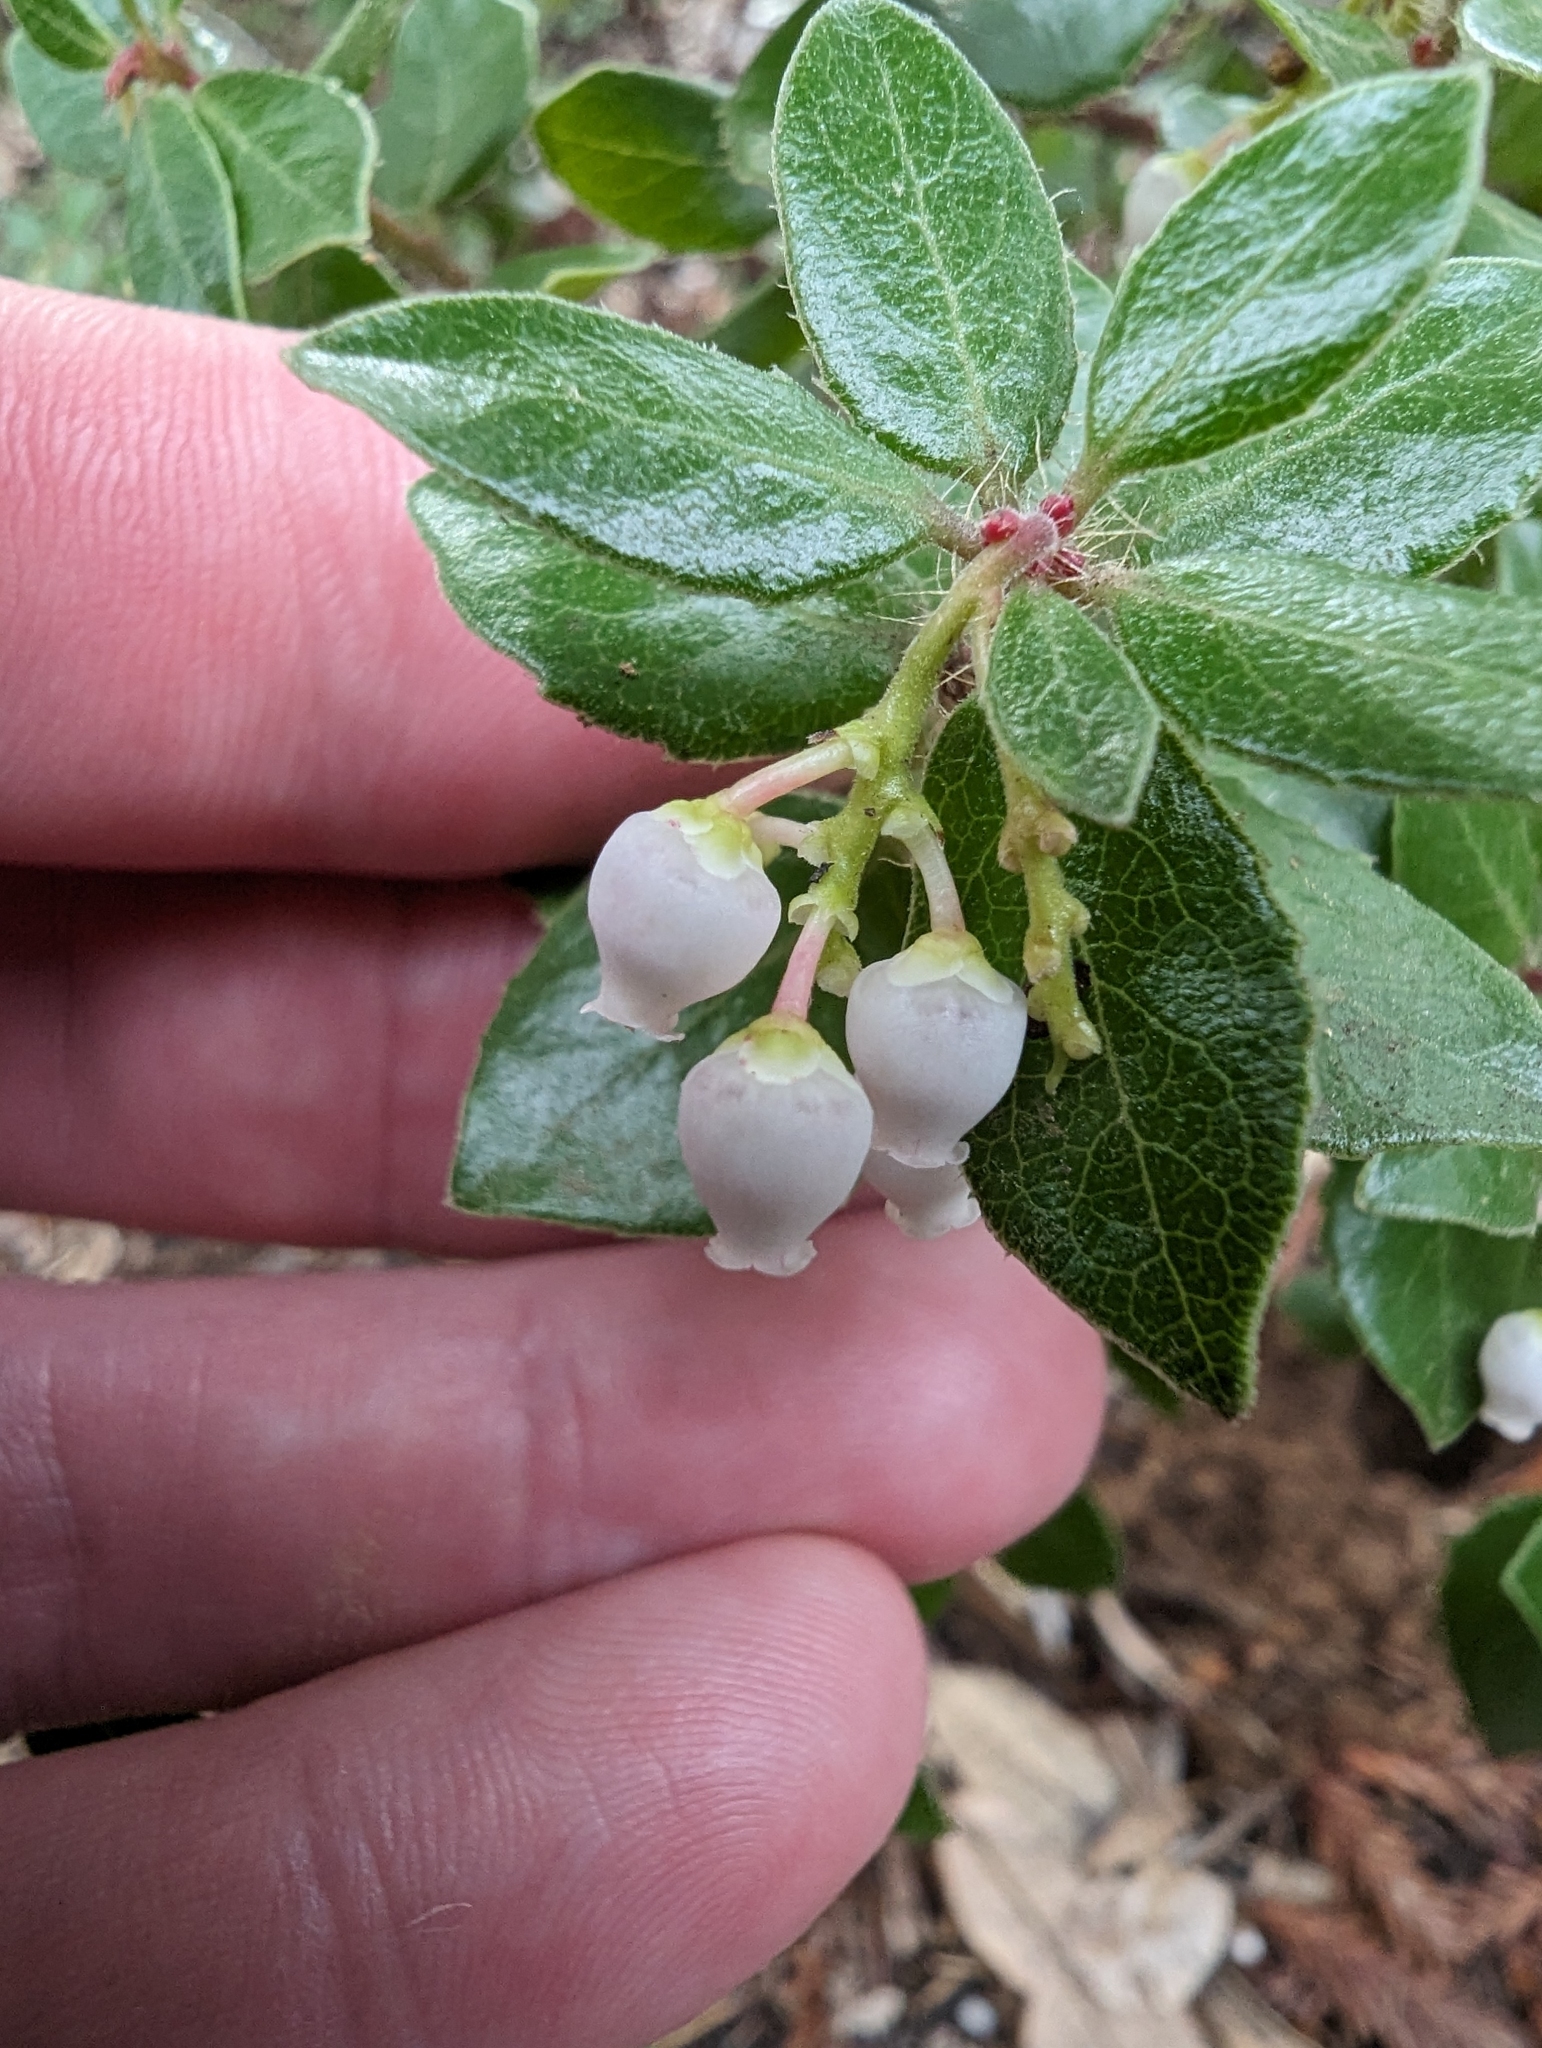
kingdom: Plantae
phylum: Tracheophyta
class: Magnoliopsida
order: Ericales
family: Ericaceae
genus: Arctostaphylos
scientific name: Arctostaphylos nummularia
